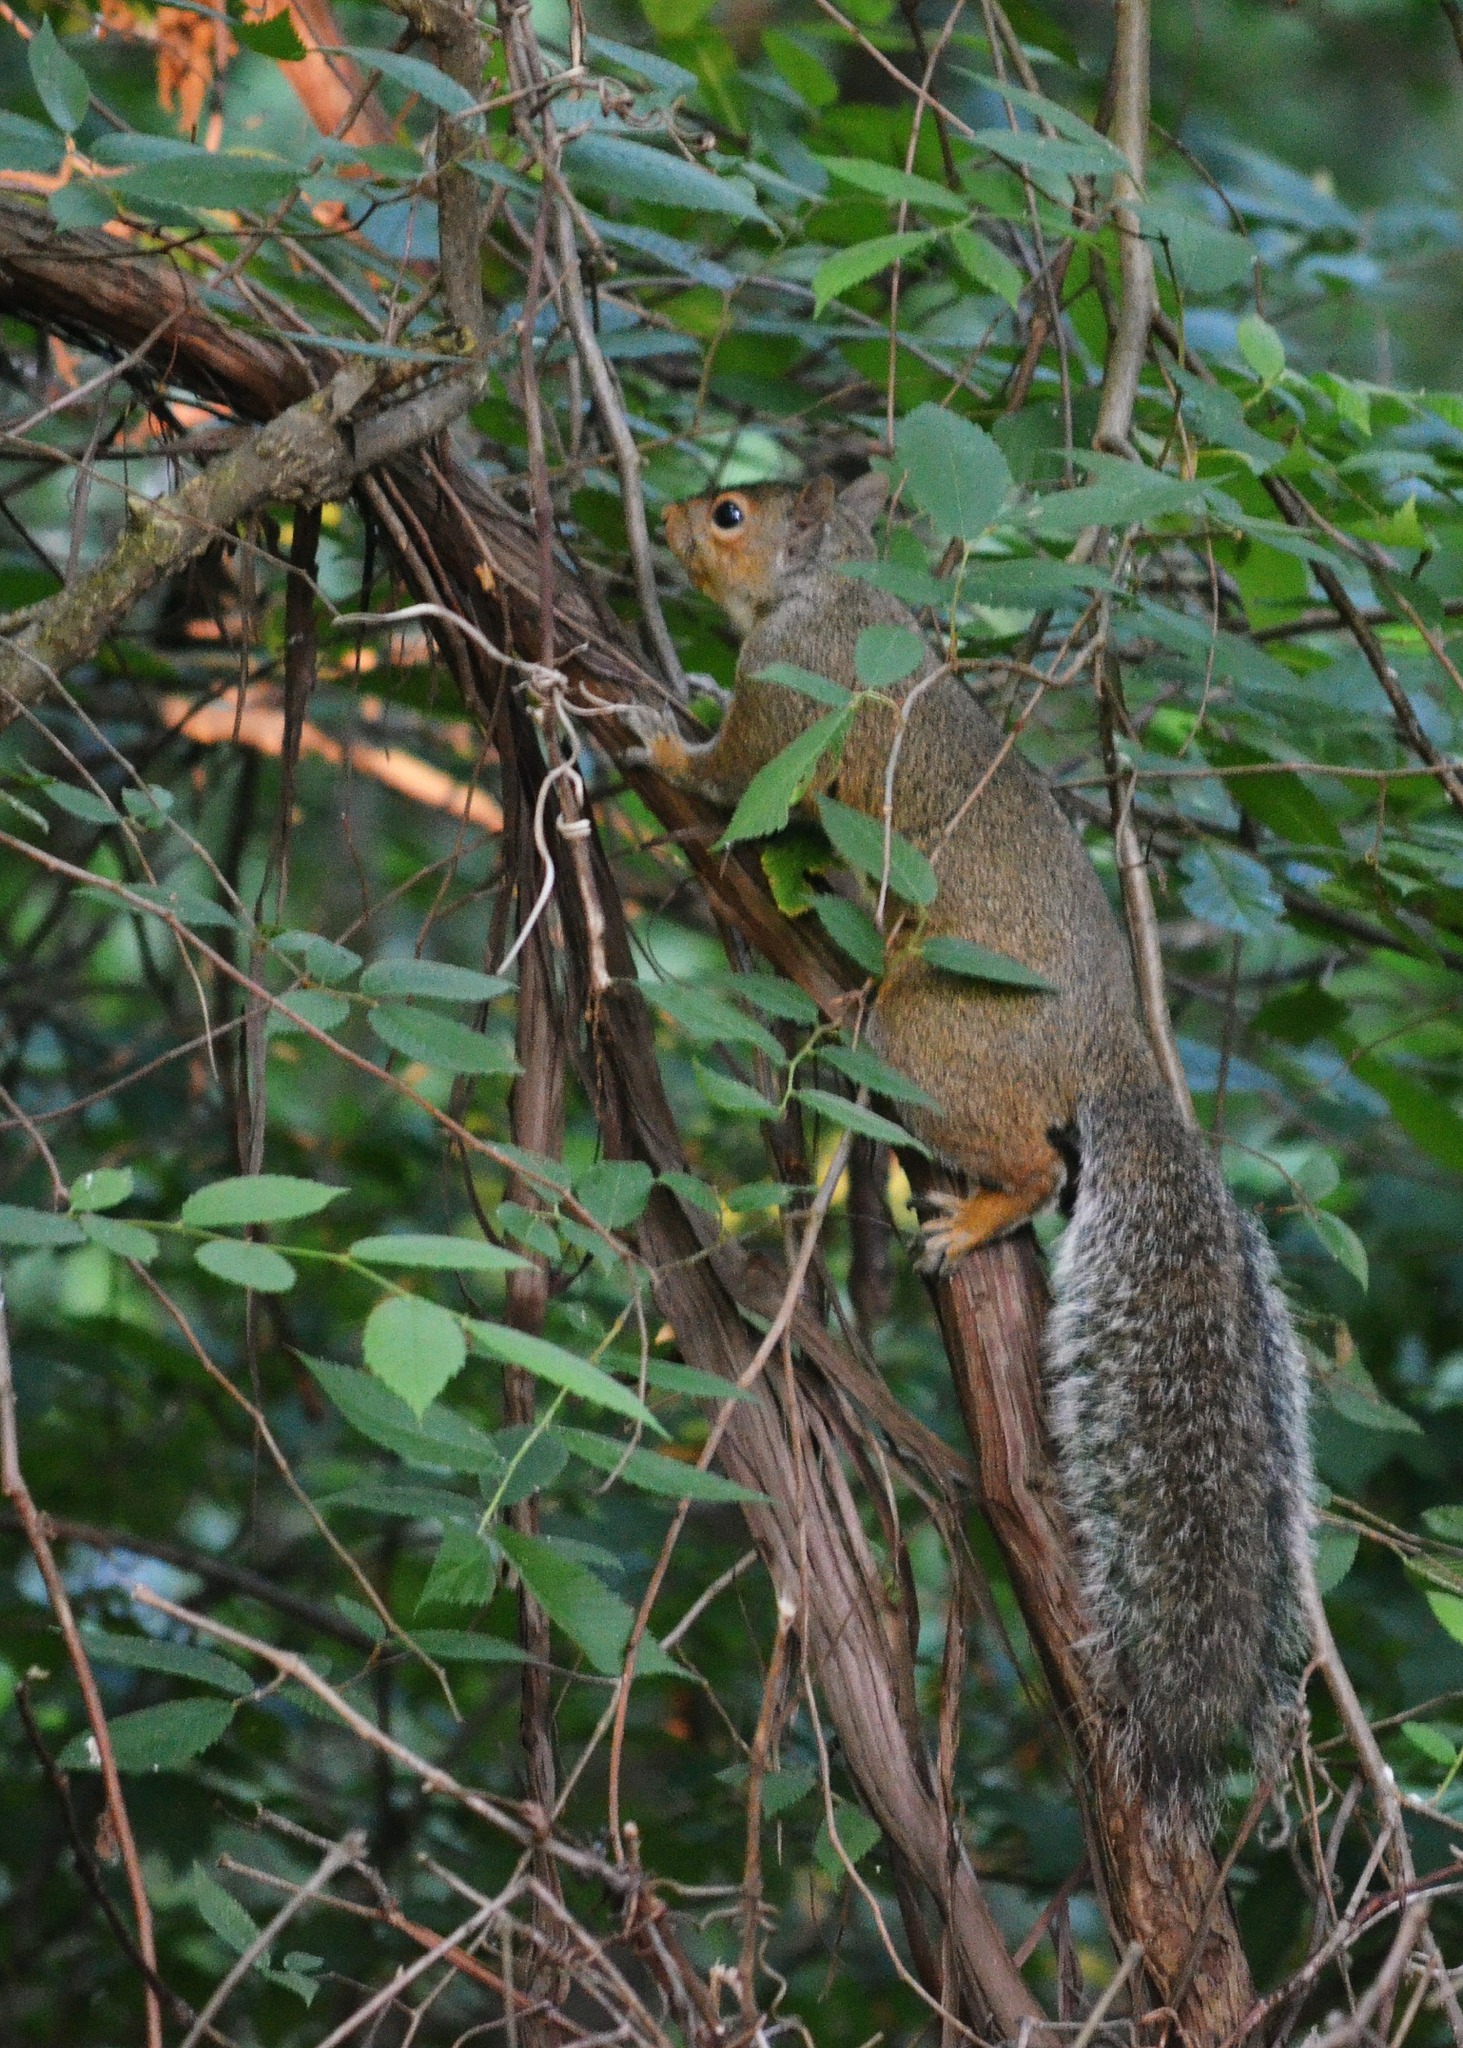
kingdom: Animalia
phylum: Chordata
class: Mammalia
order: Rodentia
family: Sciuridae
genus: Sciurus
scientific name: Sciurus carolinensis
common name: Eastern gray squirrel
